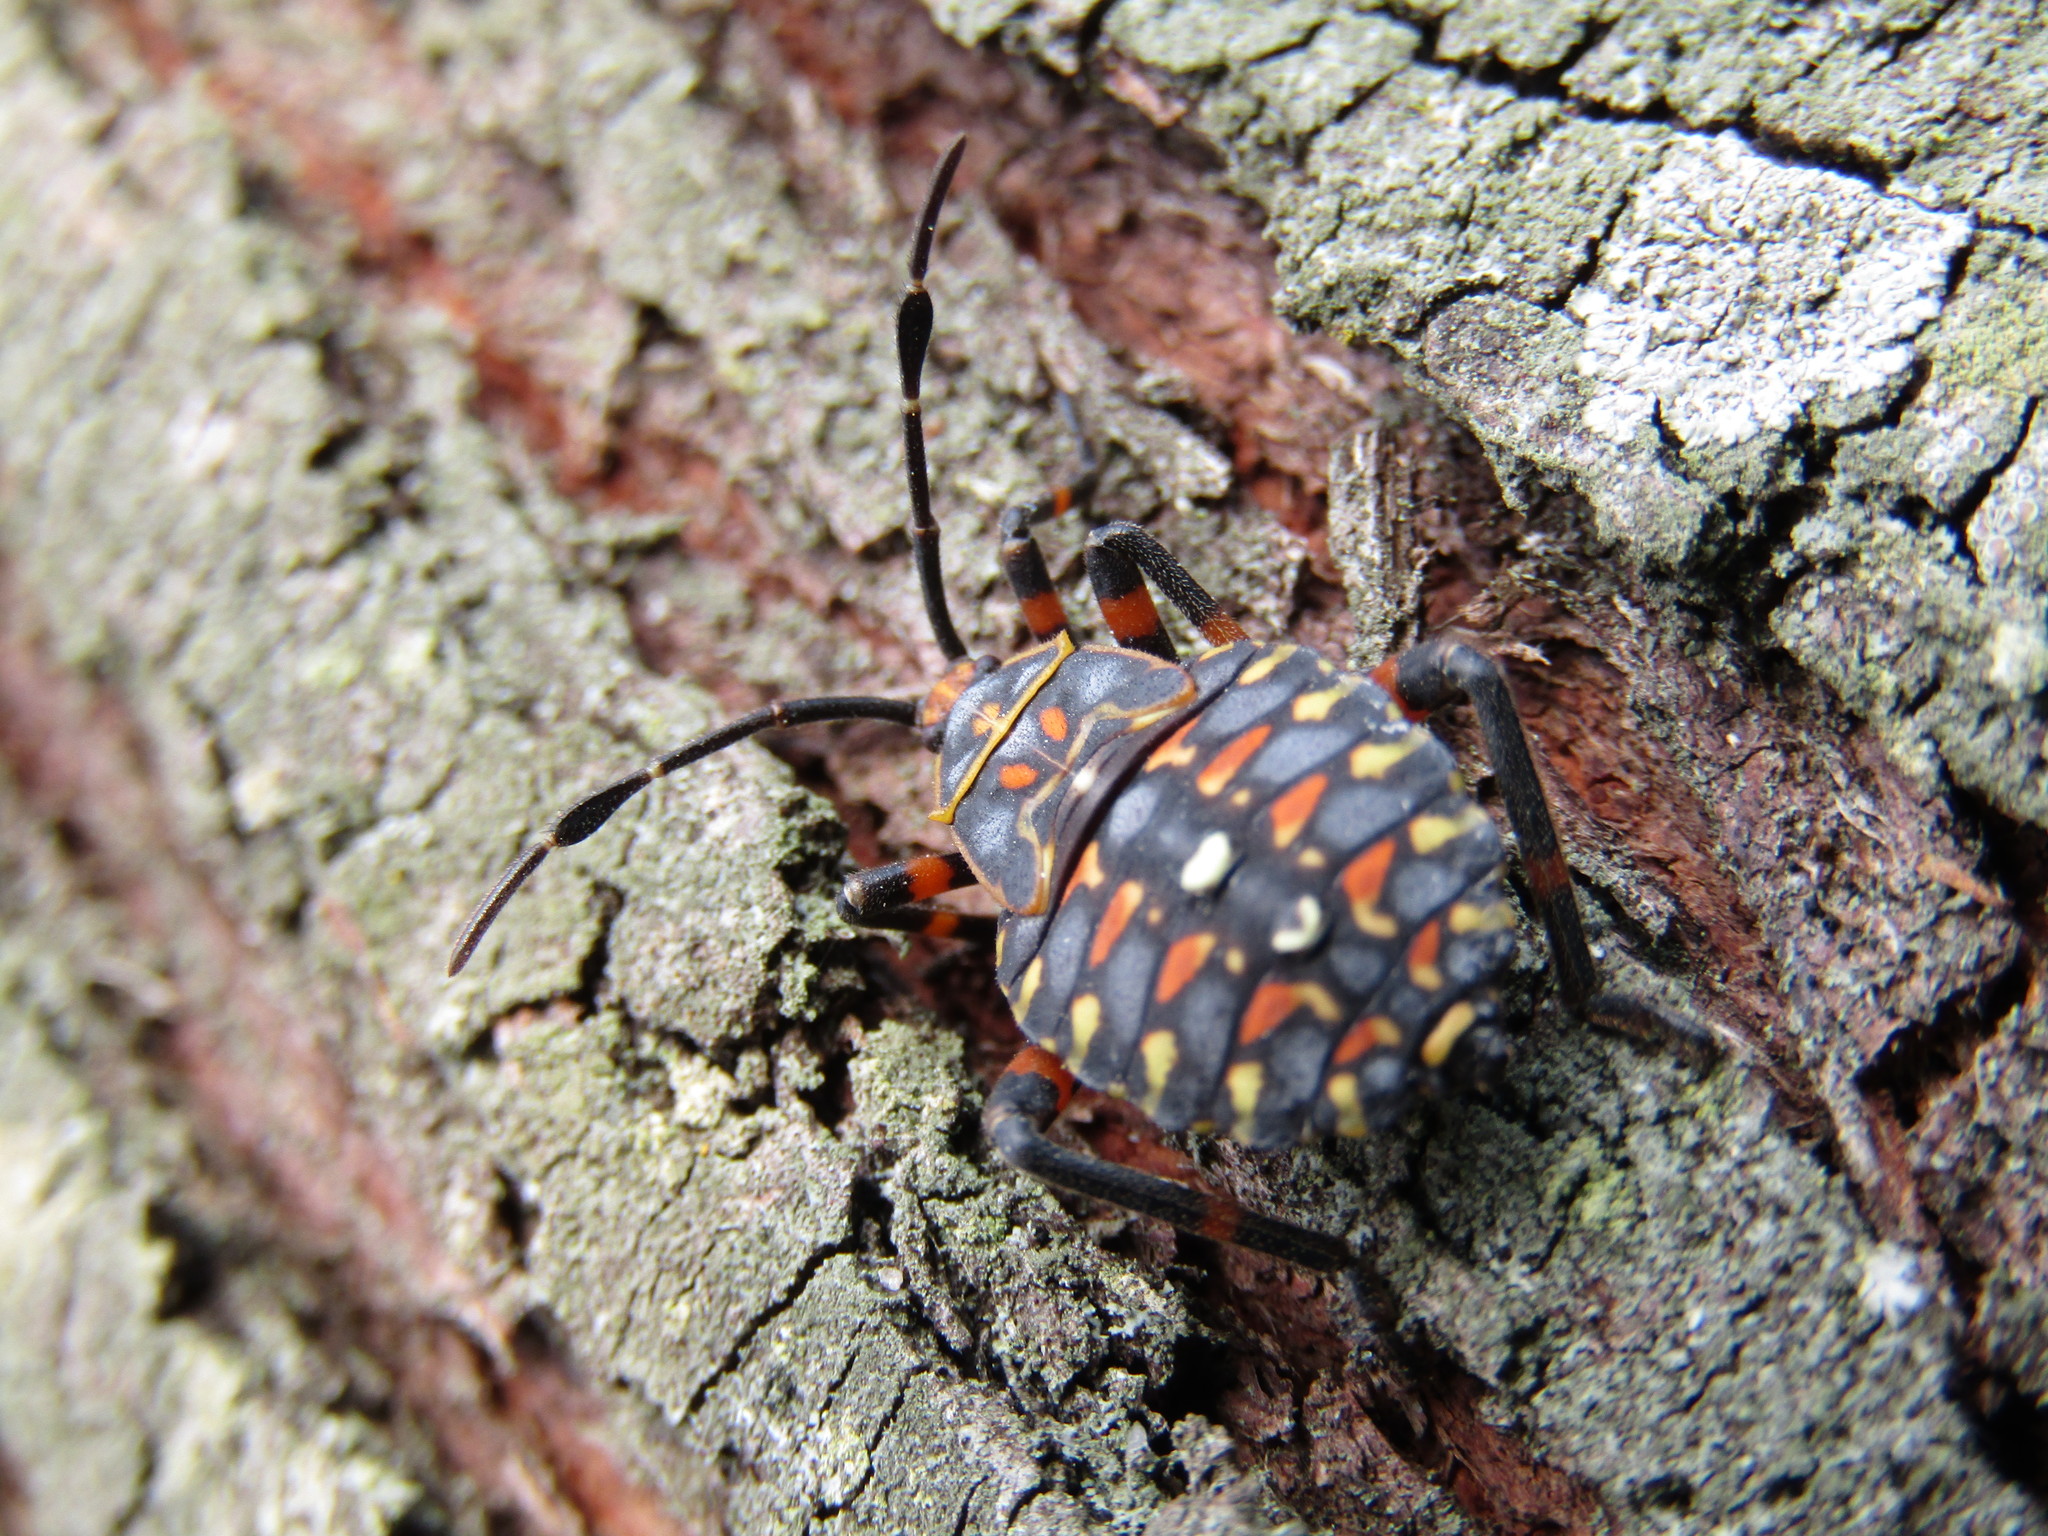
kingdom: Animalia
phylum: Arthropoda
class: Insecta
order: Hemiptera
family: Coreidae
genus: Pachylis
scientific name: Pachylis argentinus
